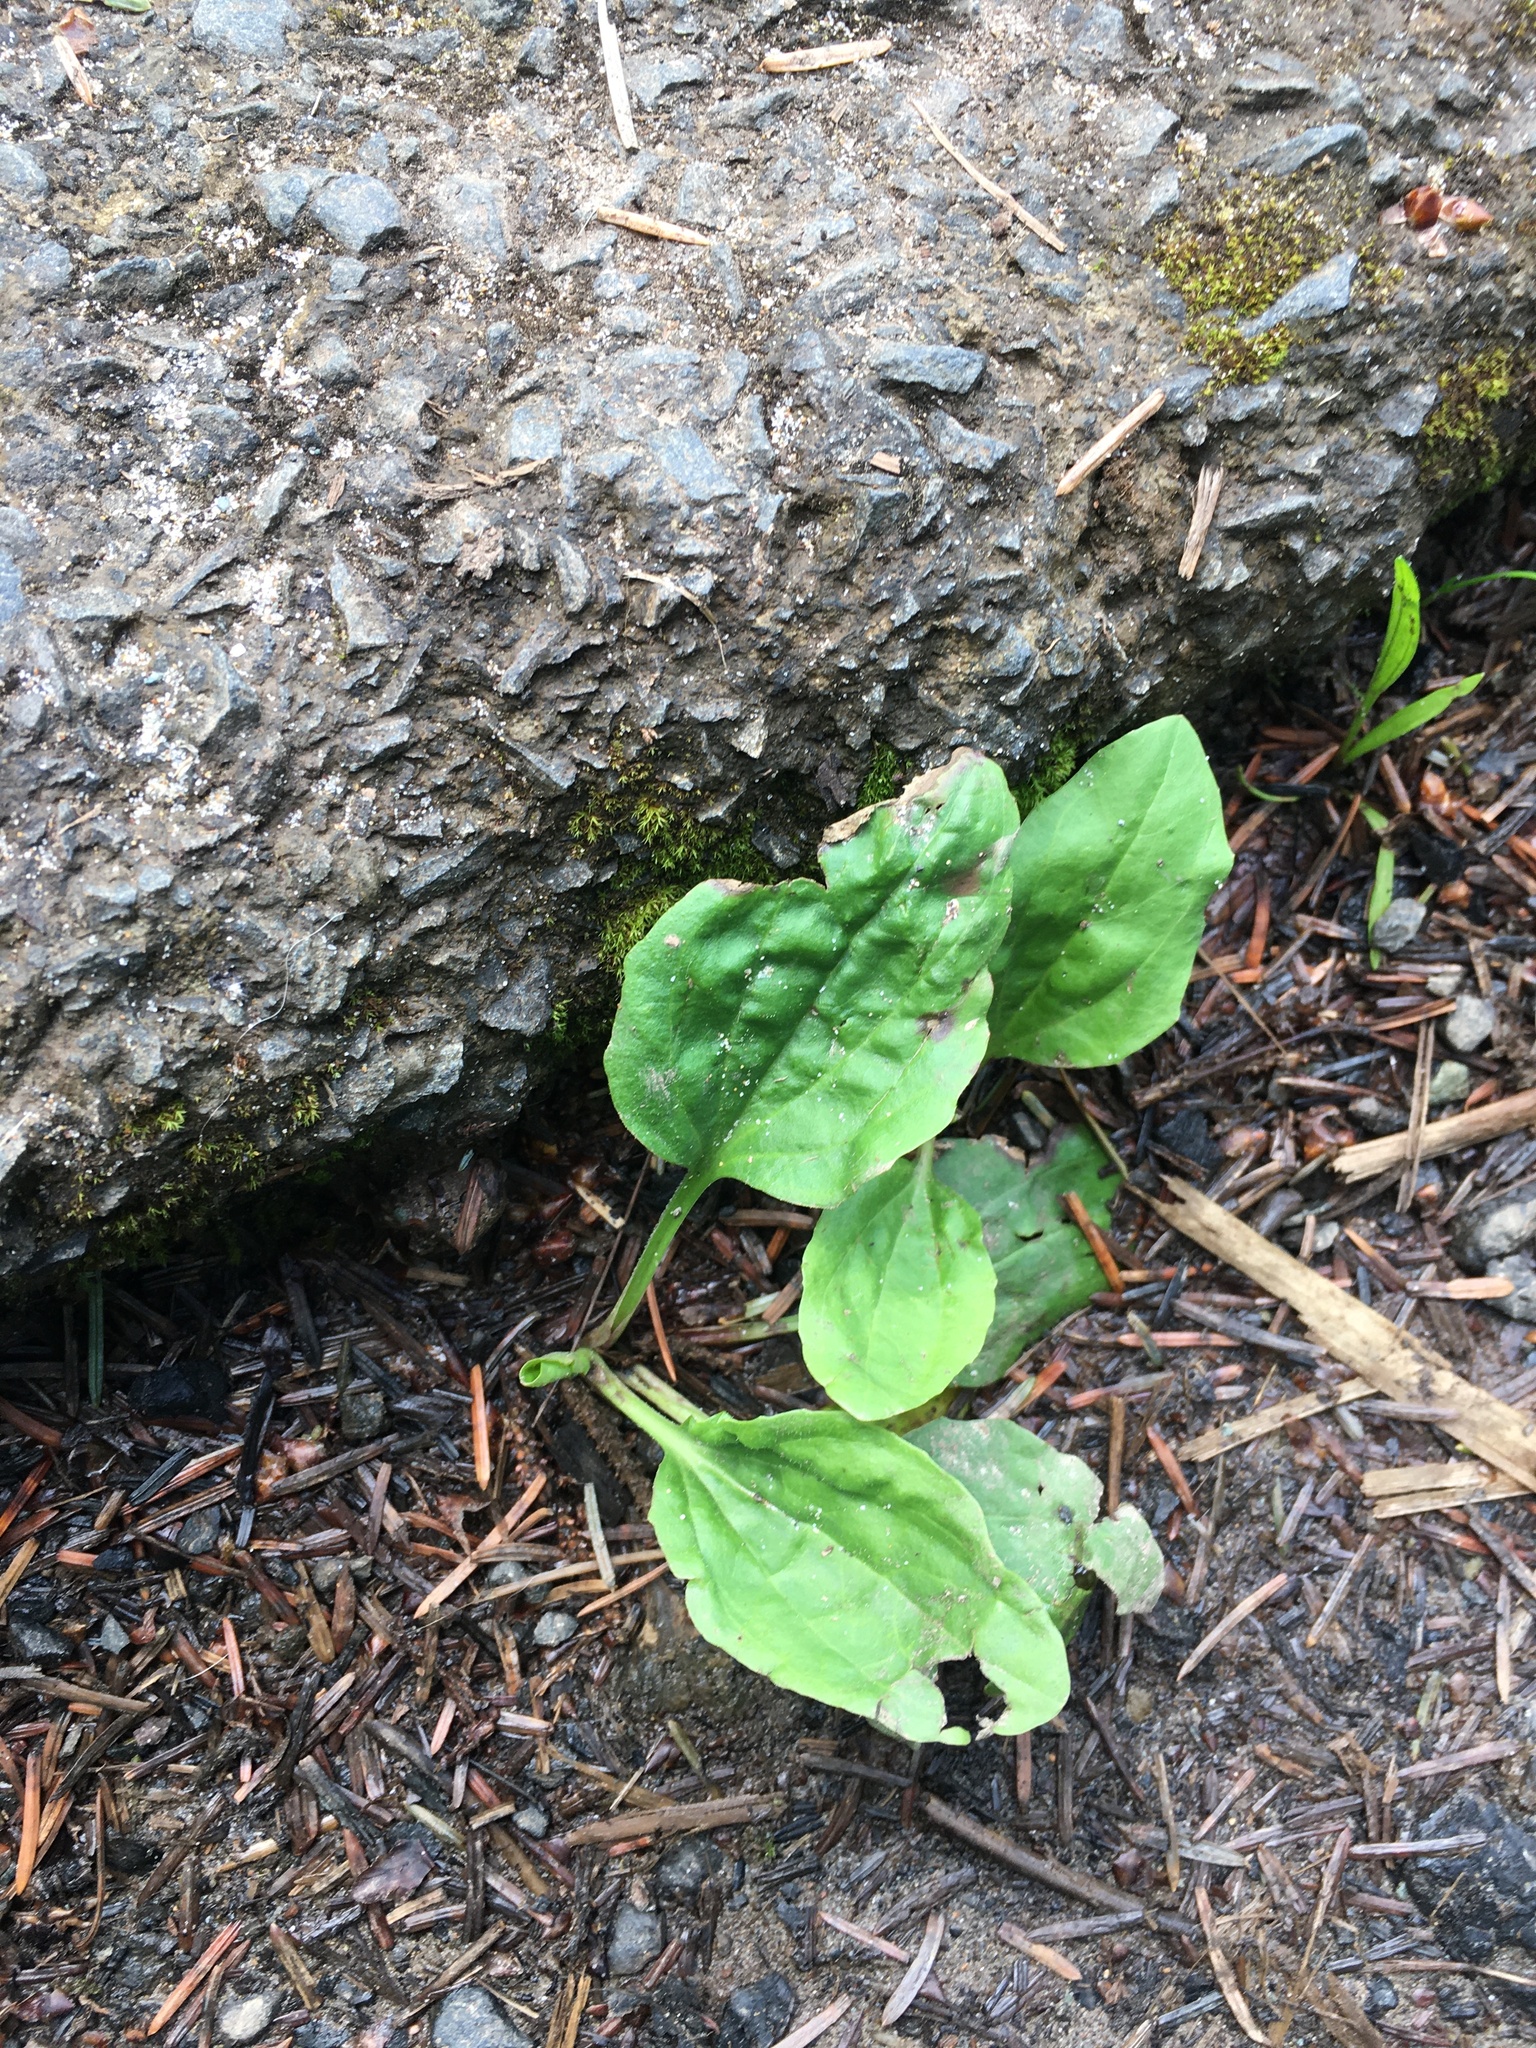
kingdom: Plantae
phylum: Tracheophyta
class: Magnoliopsida
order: Lamiales
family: Plantaginaceae
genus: Plantago
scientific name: Plantago major
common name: Common plantain
